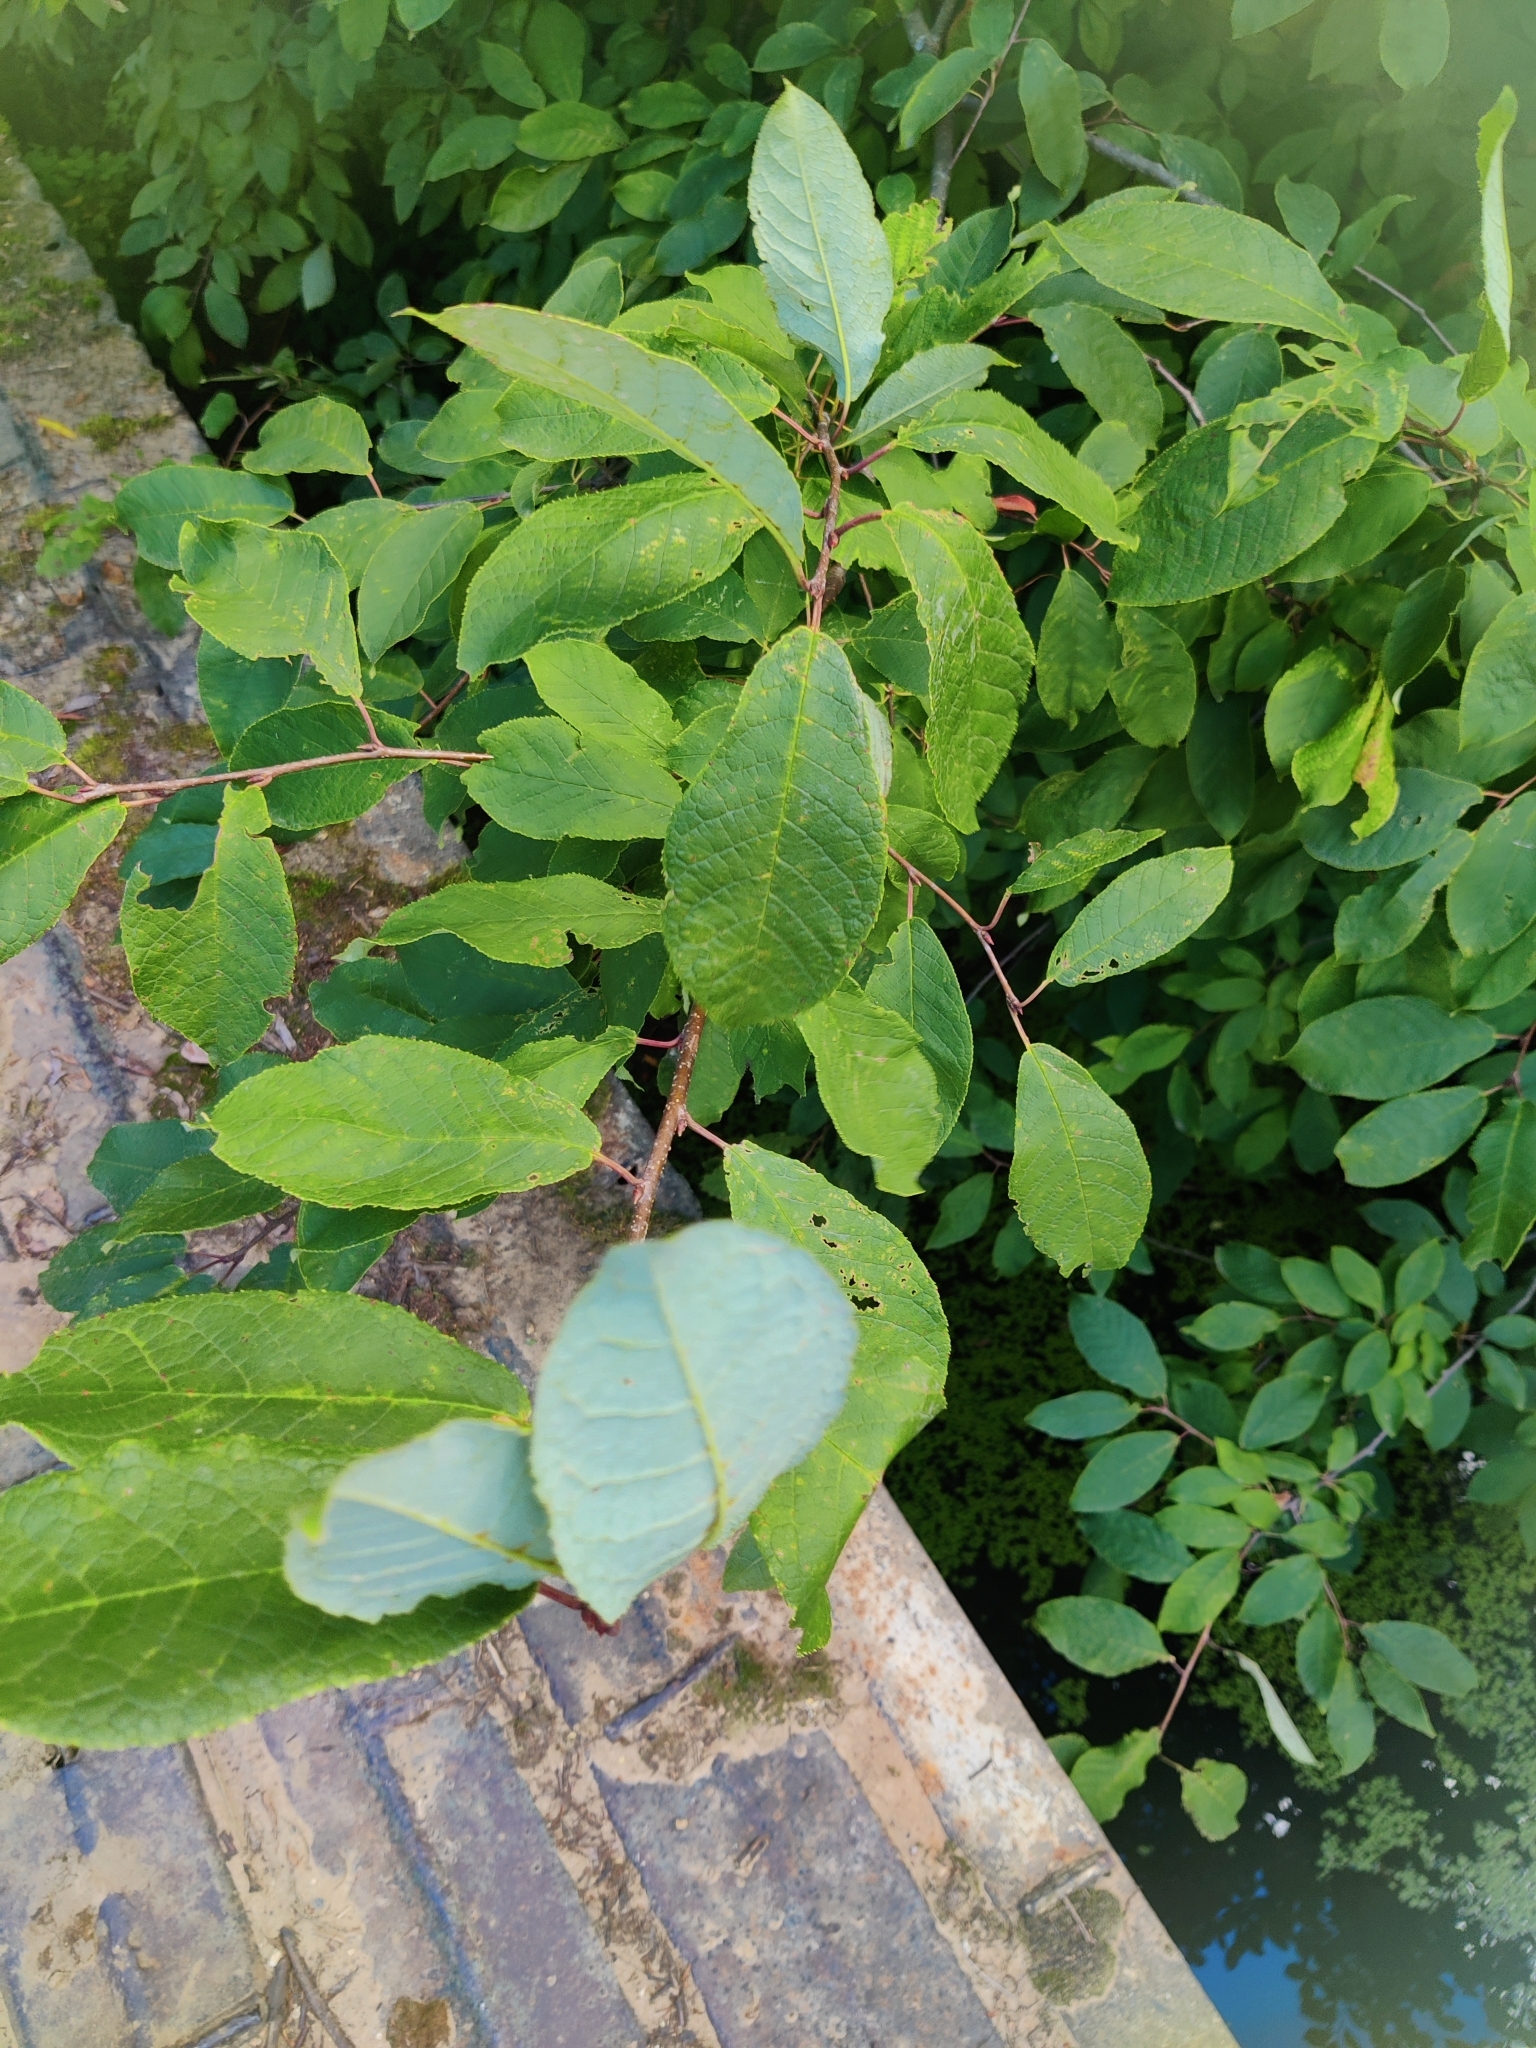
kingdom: Plantae
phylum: Tracheophyta
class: Magnoliopsida
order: Rosales
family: Rosaceae
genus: Prunus
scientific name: Prunus padus
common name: Bird cherry
